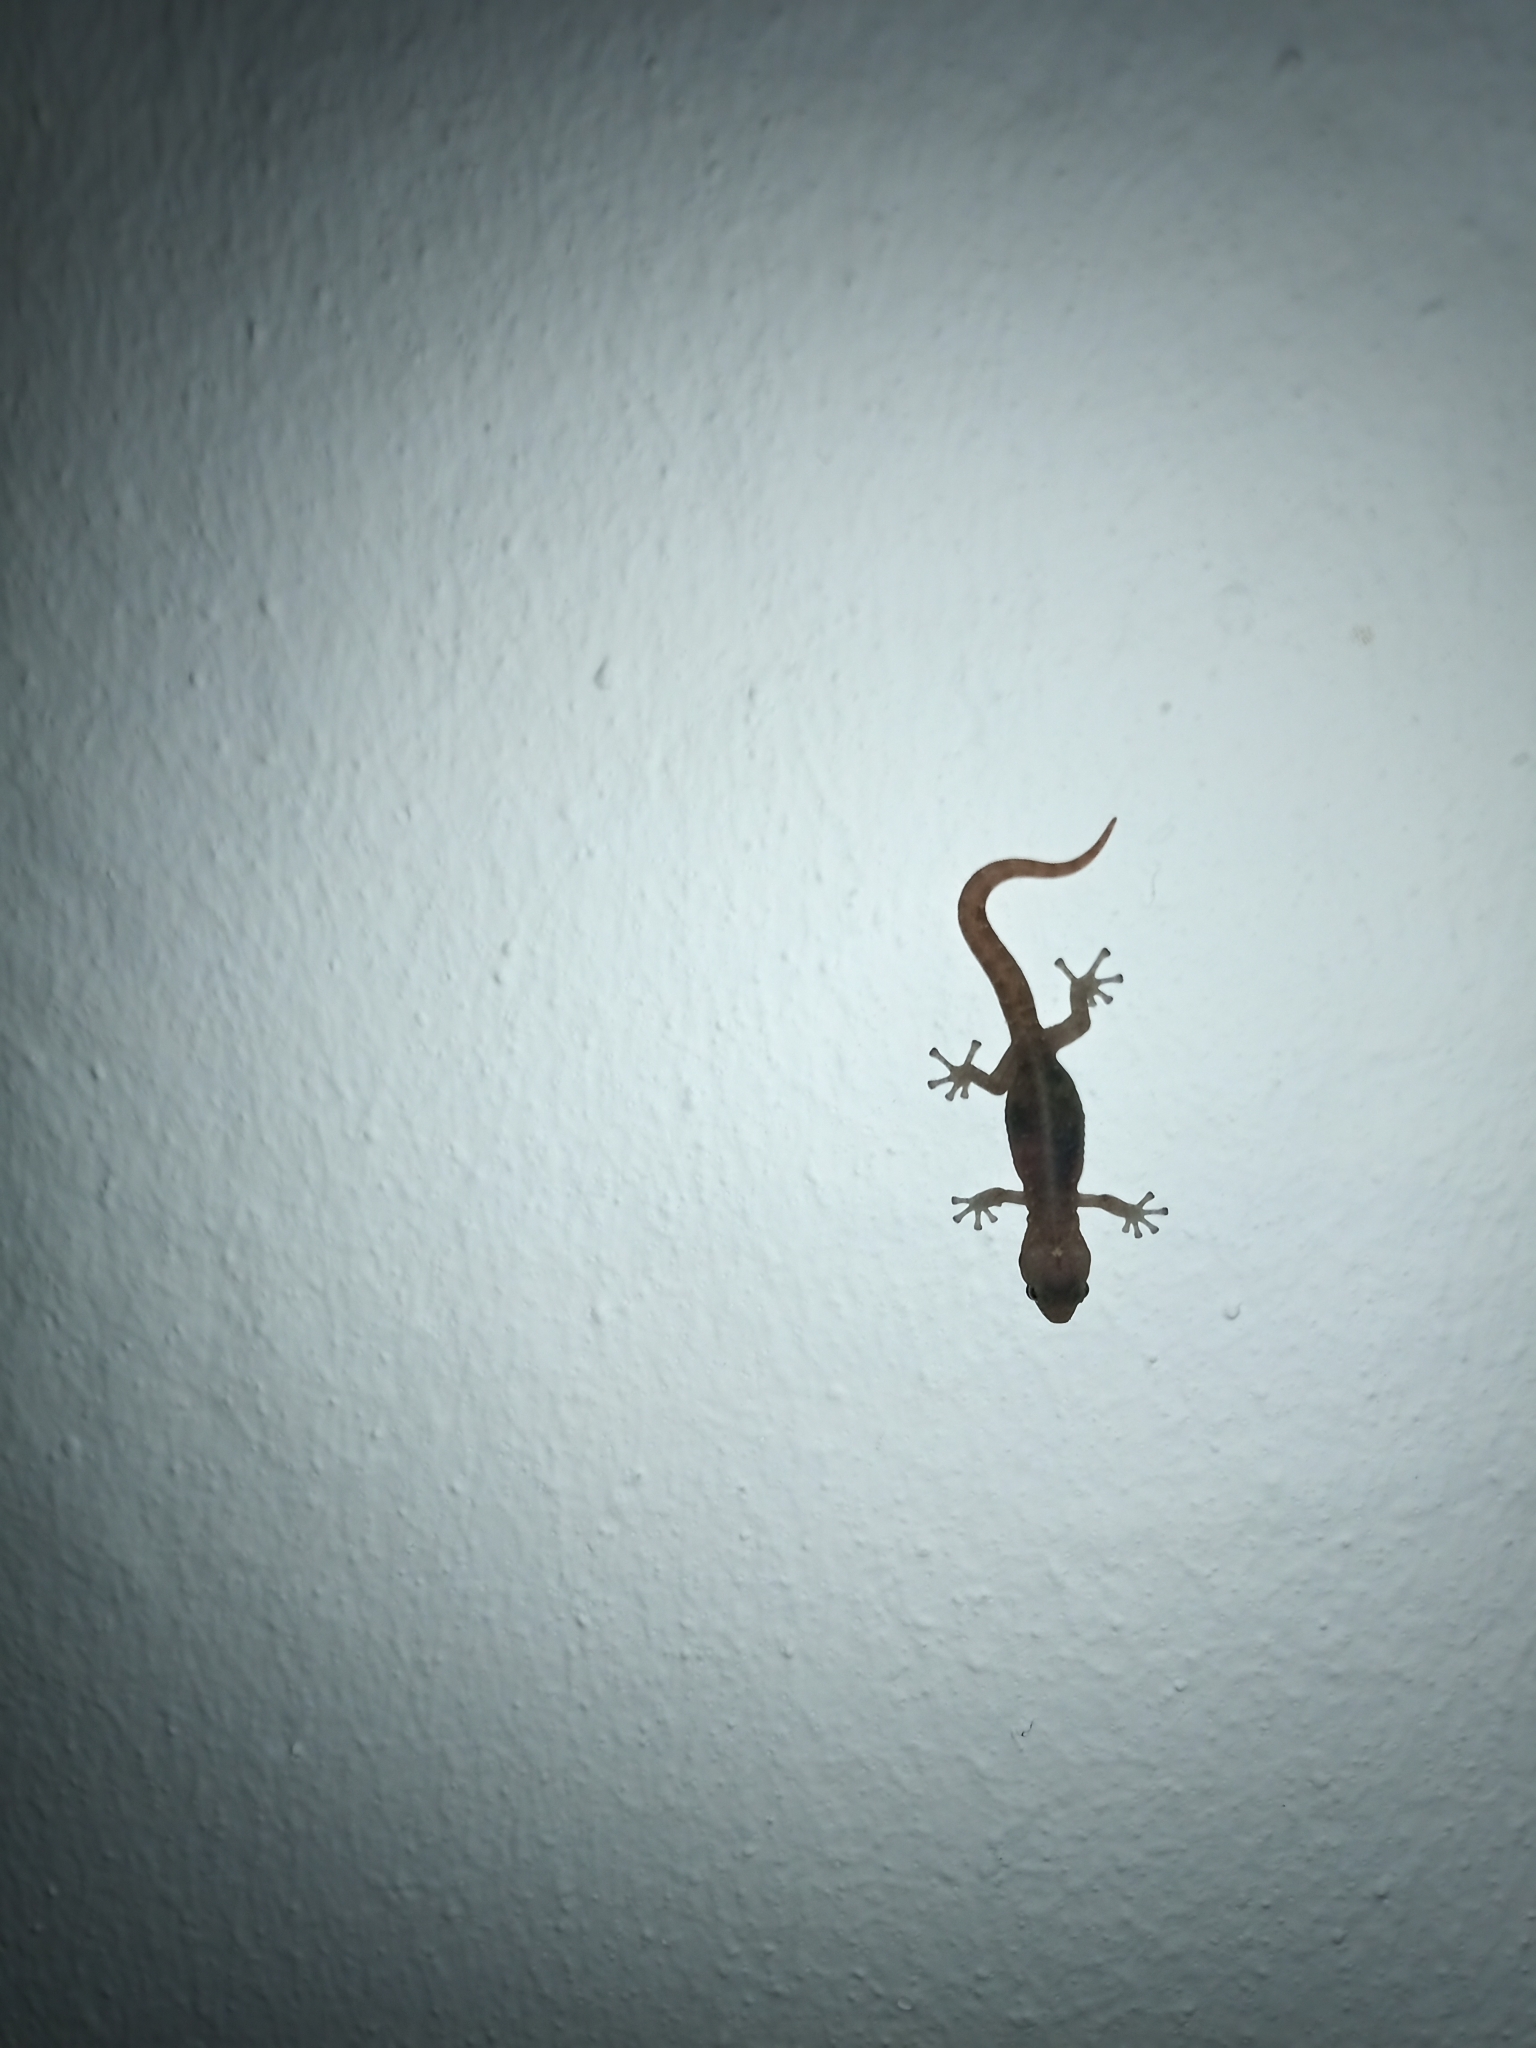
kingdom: Animalia
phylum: Chordata
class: Squamata
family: Gekkonidae
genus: Afrogecko
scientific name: Afrogecko porphyreus
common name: Marbled leaf-toed gecko
